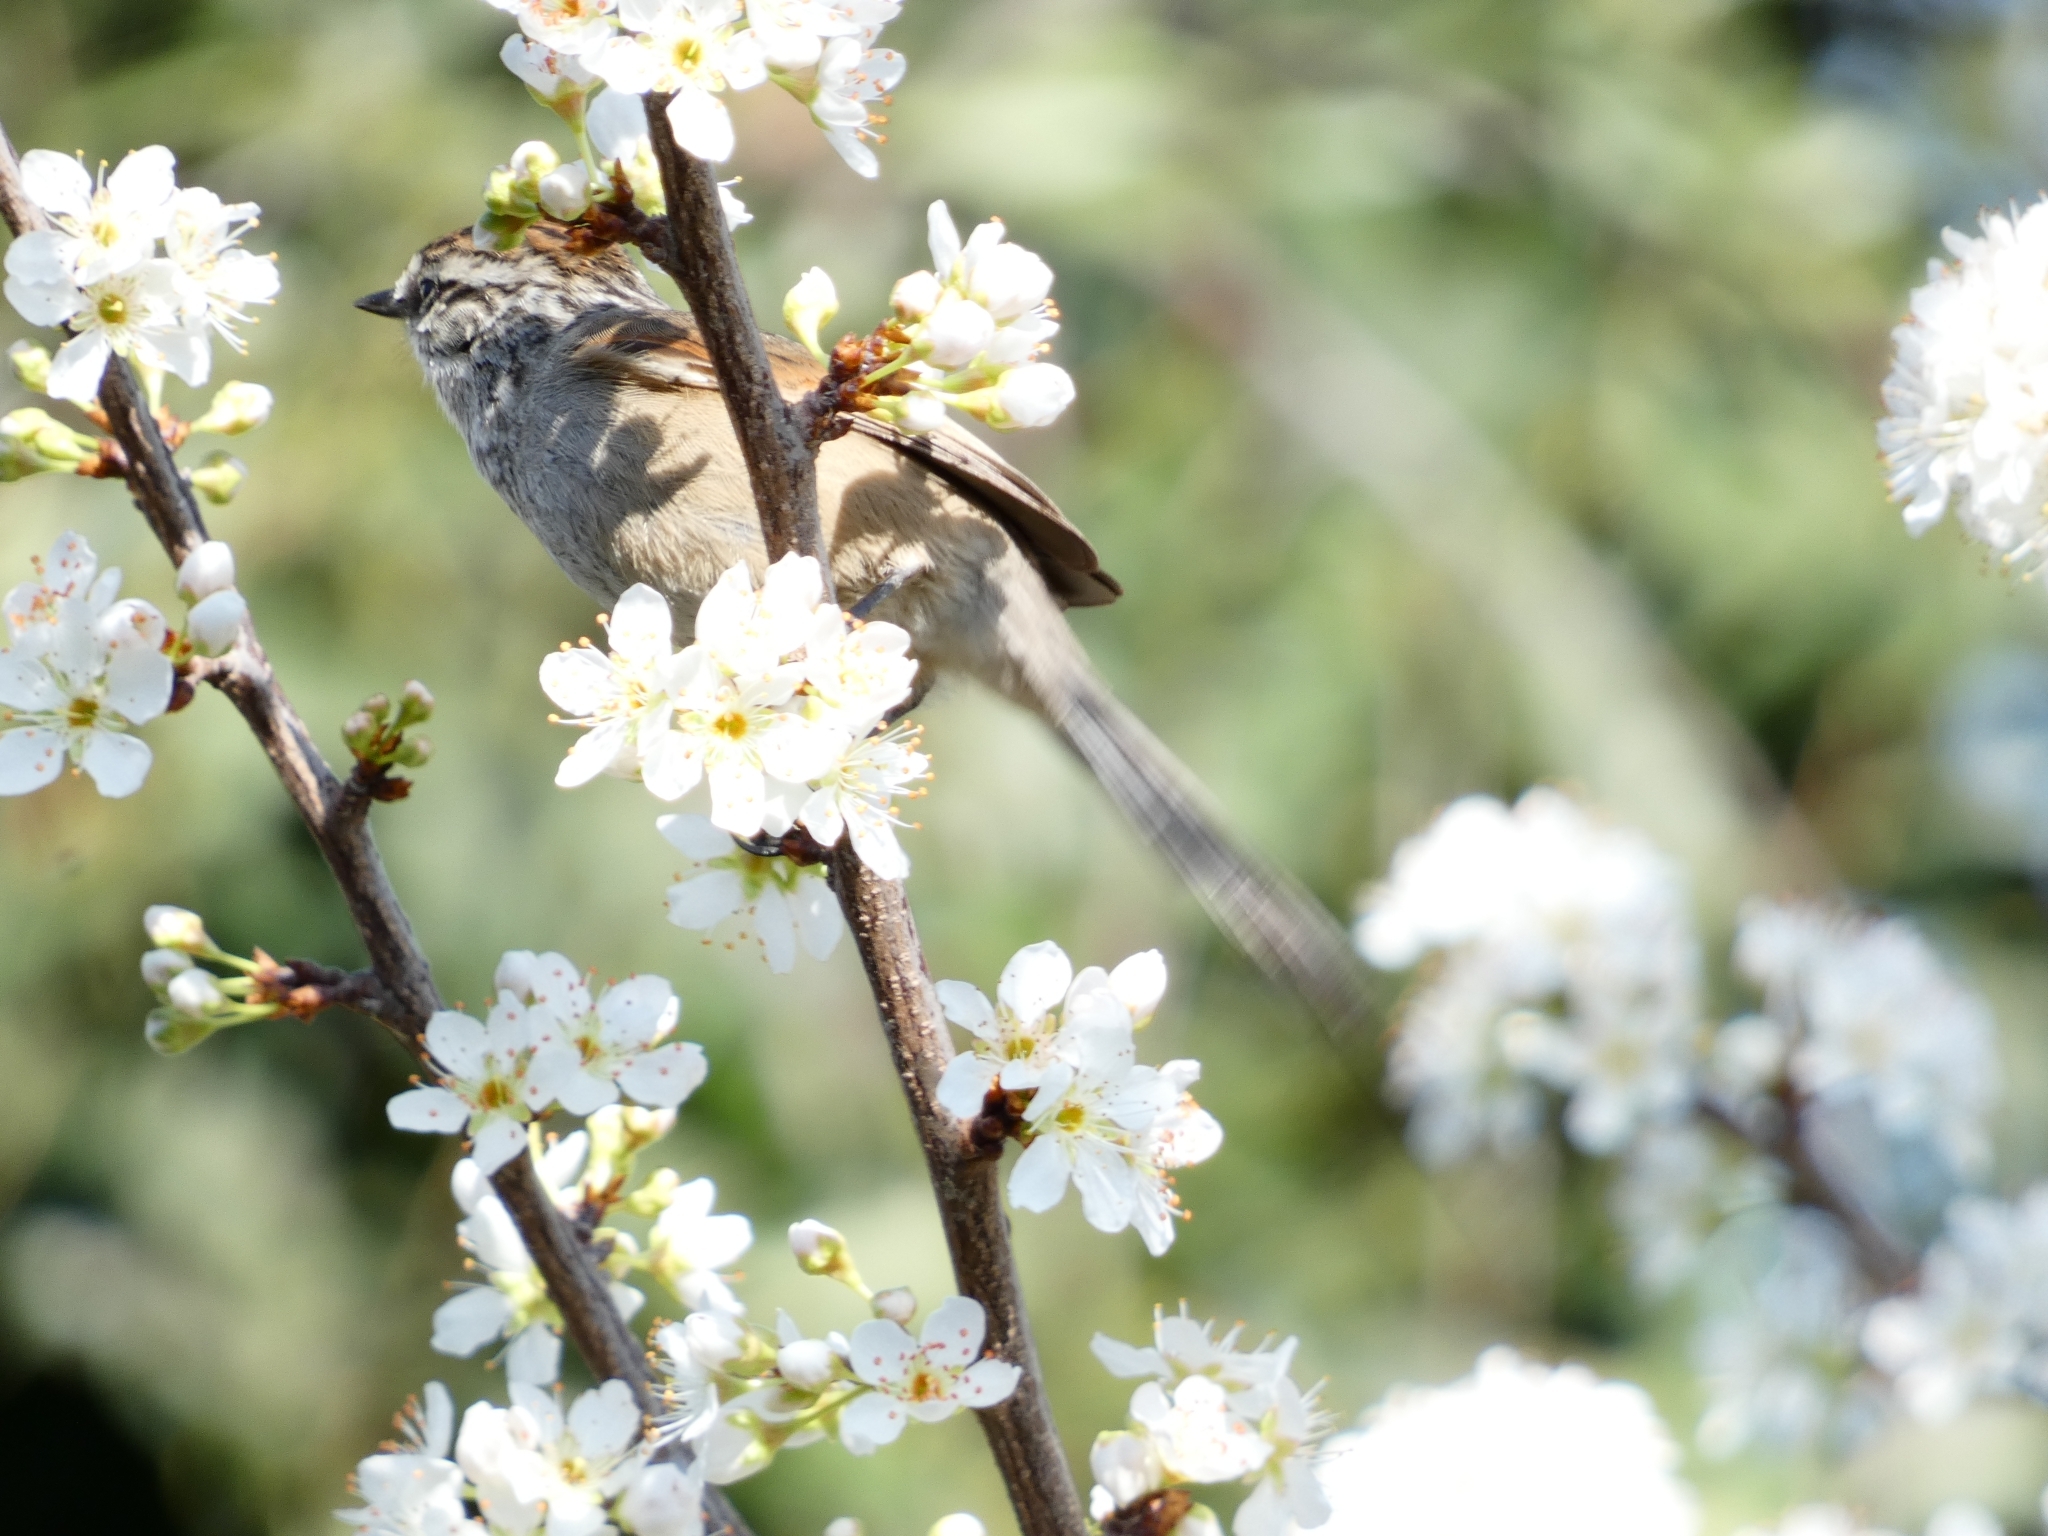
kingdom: Animalia
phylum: Chordata
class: Aves
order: Passeriformes
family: Furnariidae
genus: Leptasthenura
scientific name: Leptasthenura aegithaloides
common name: Plain-mantled tit-spinetail
